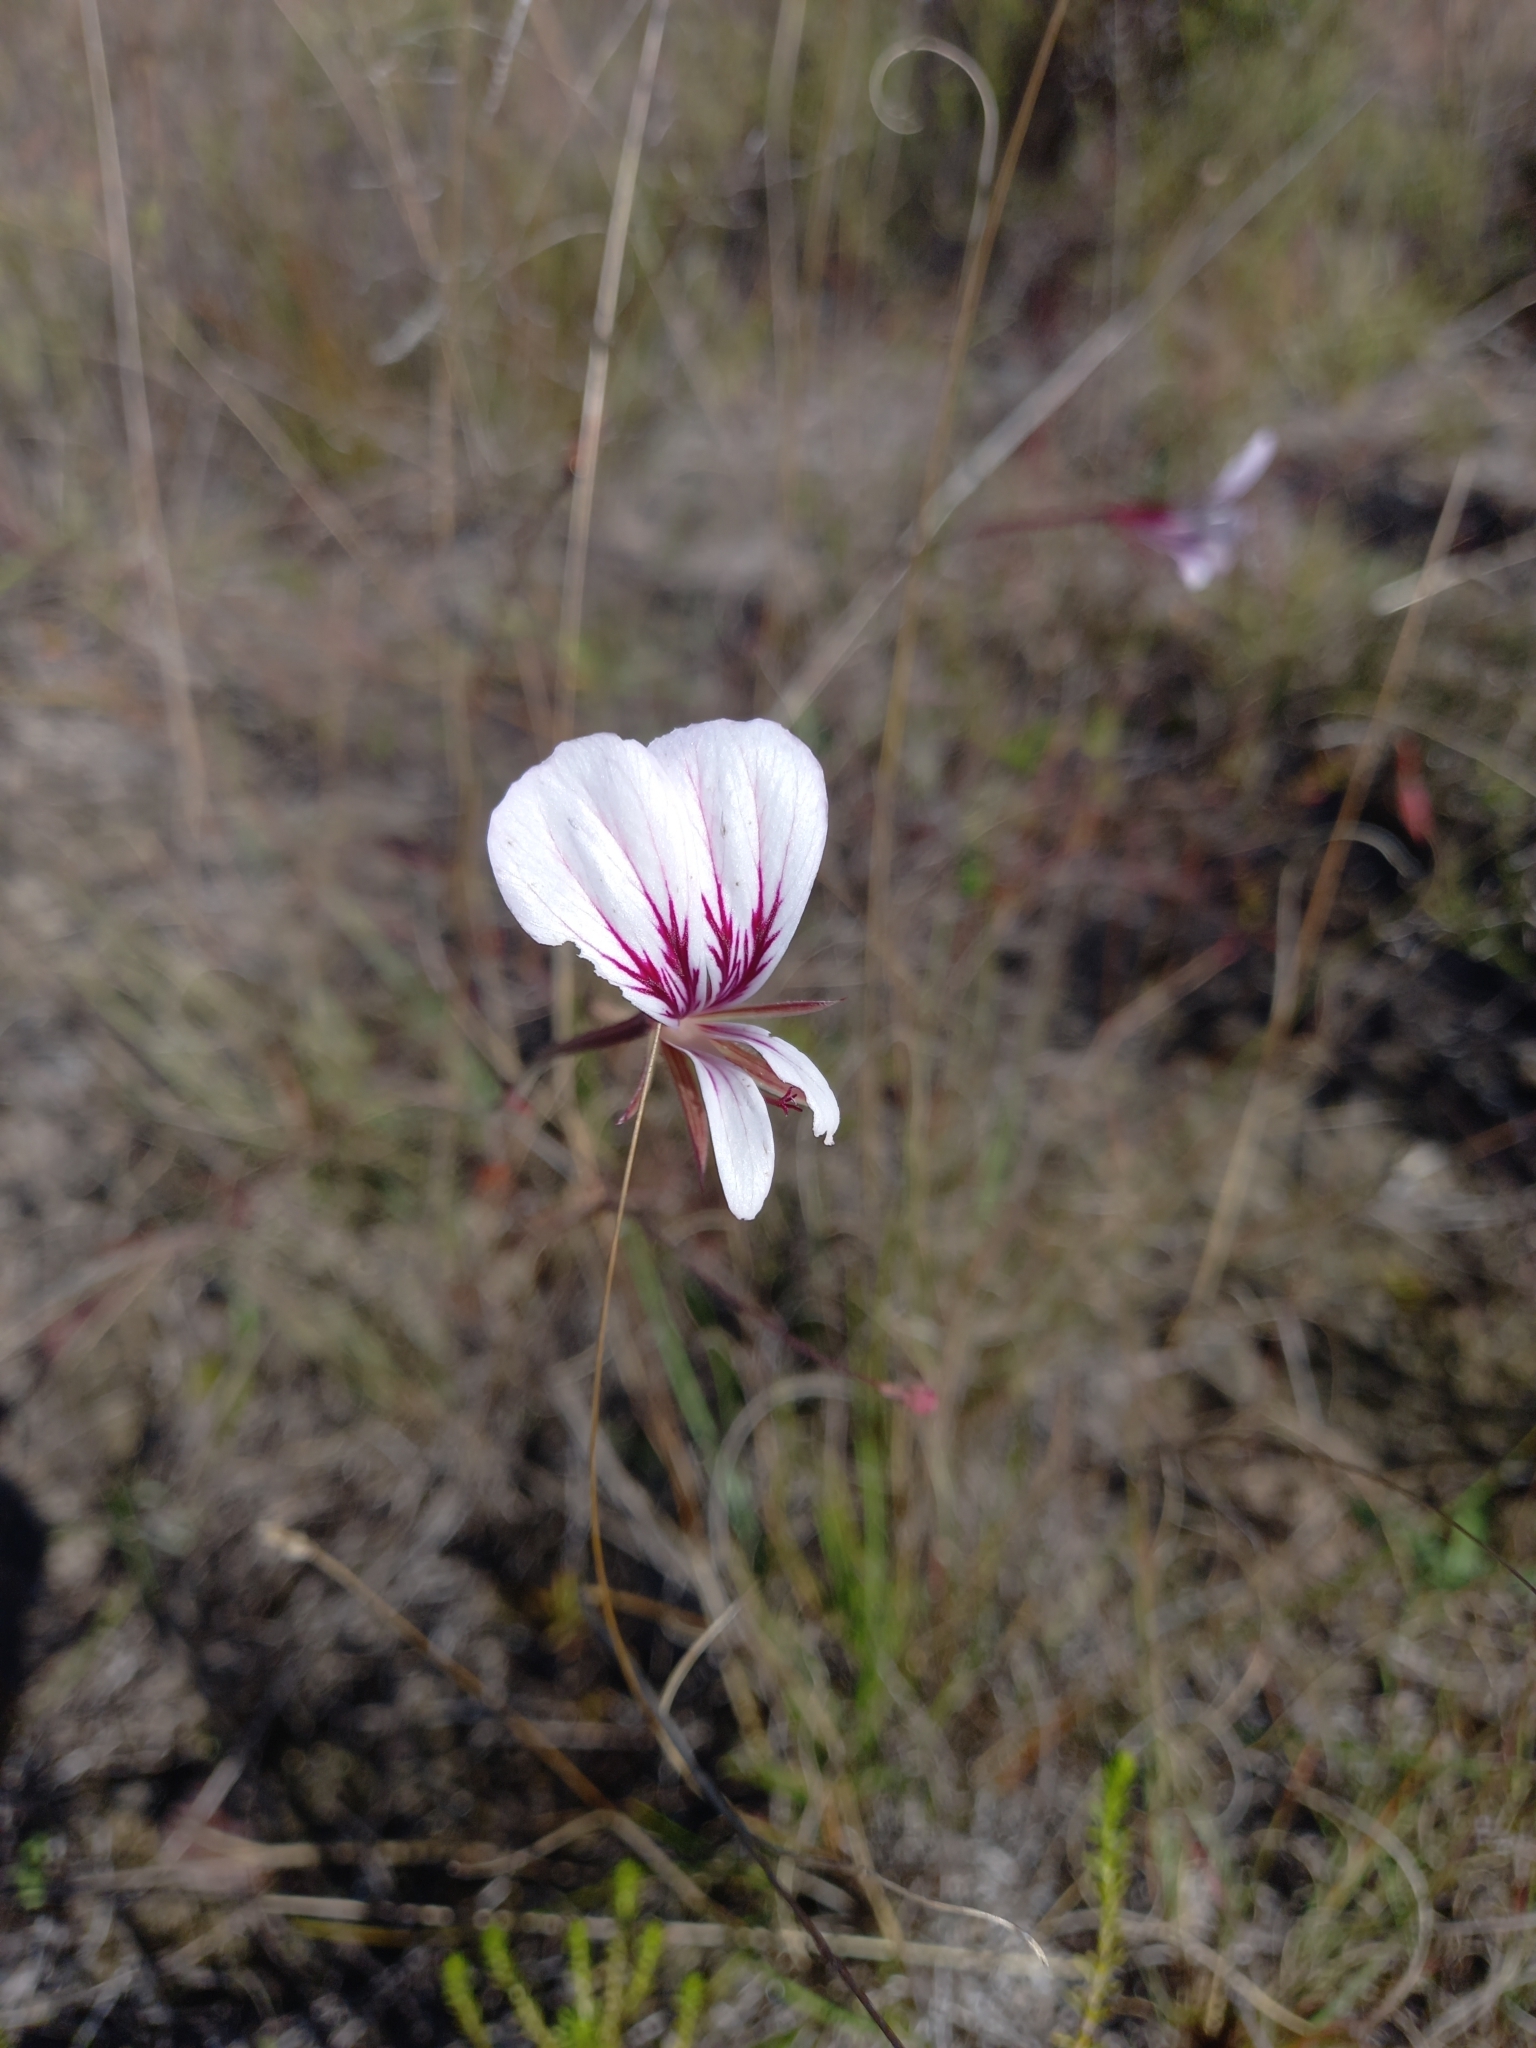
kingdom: Plantae
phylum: Tracheophyta
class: Magnoliopsida
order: Geraniales
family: Geraniaceae
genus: Pelargonium
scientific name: Pelargonium caucalifolium
